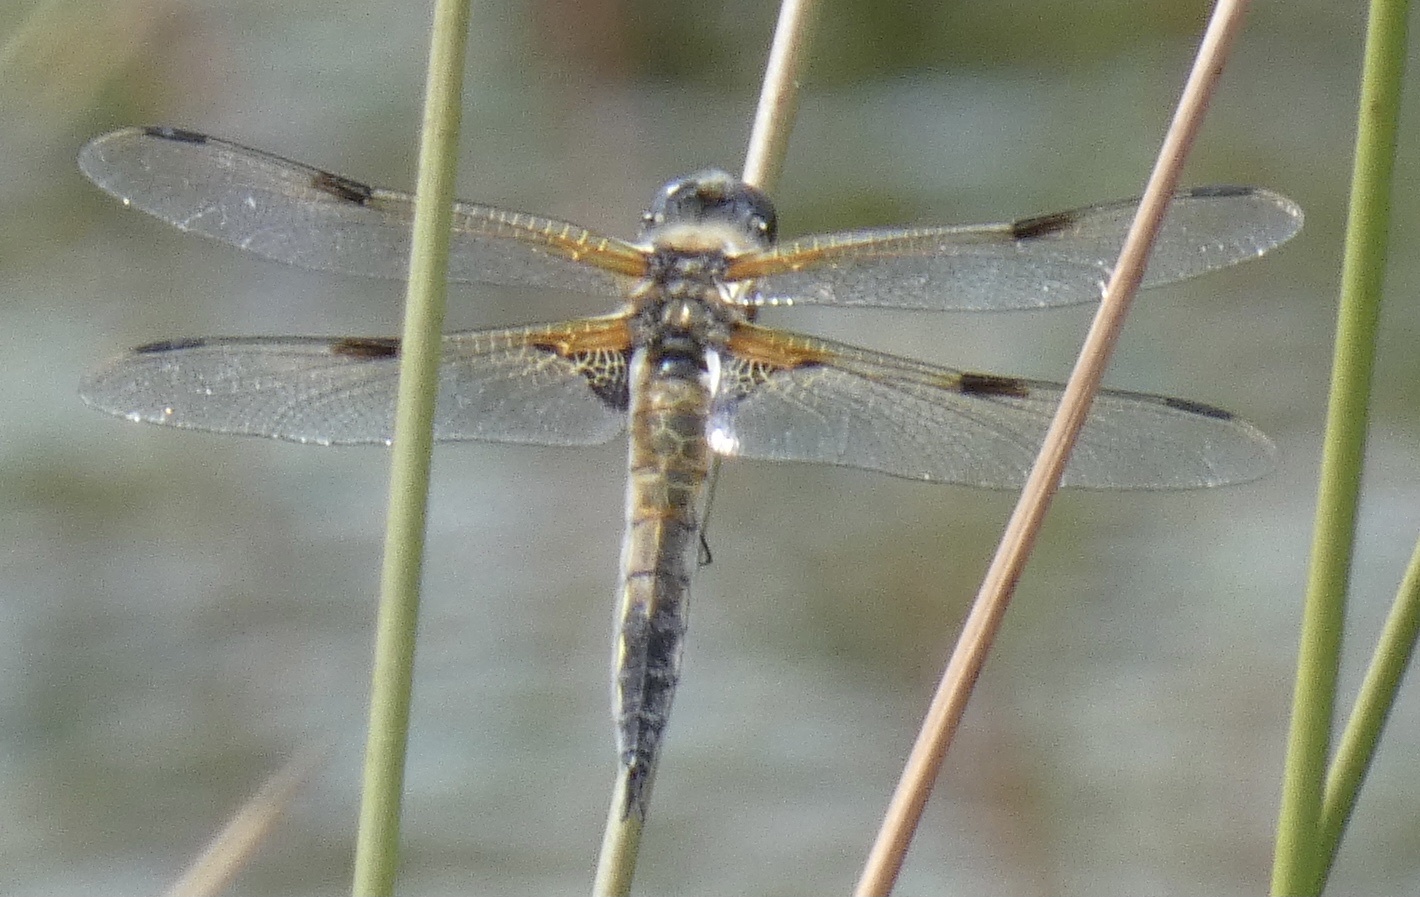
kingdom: Animalia
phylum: Arthropoda
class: Insecta
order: Odonata
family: Libellulidae
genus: Libellula
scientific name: Libellula quadrimaculata
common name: Four-spotted chaser
